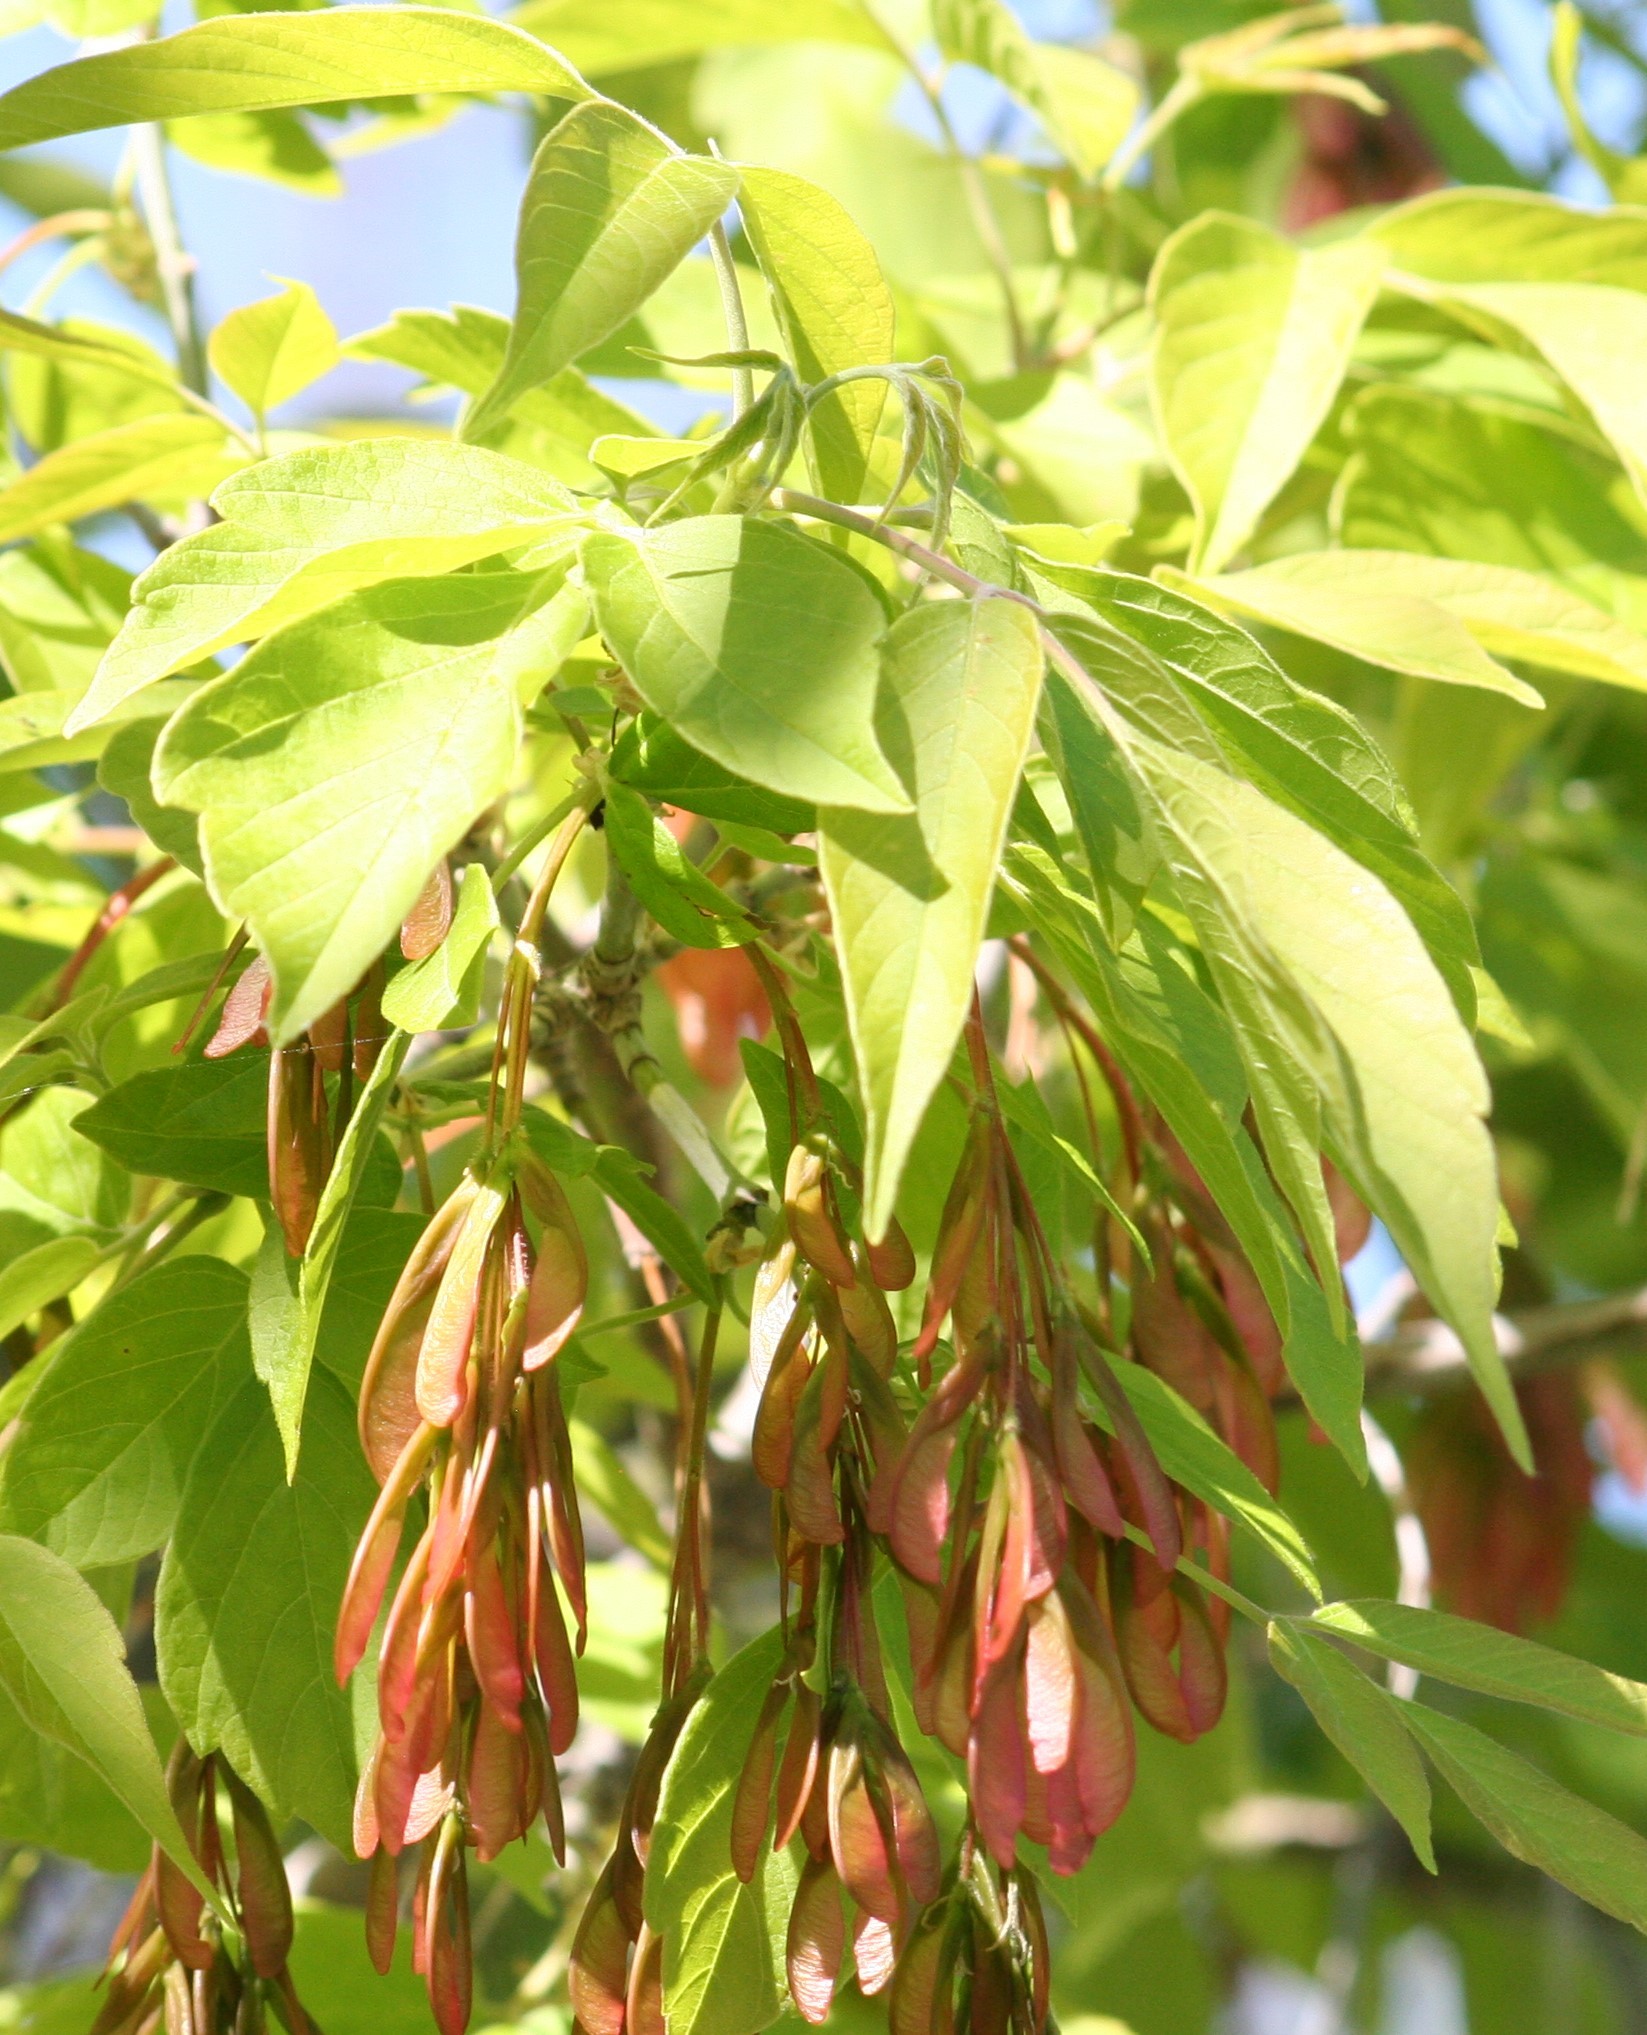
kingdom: Plantae
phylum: Tracheophyta
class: Magnoliopsida
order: Sapindales
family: Sapindaceae
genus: Acer
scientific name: Acer negundo
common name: Ashleaf maple
